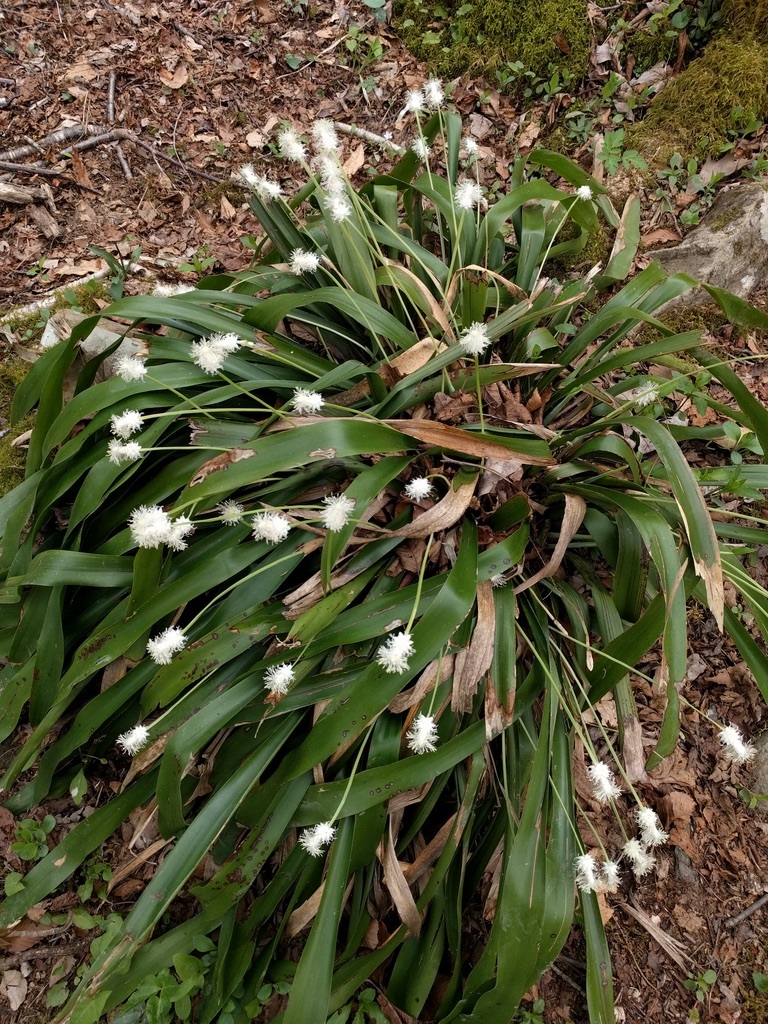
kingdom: Plantae
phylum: Tracheophyta
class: Liliopsida
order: Poales
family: Cyperaceae
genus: Carex
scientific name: Carex fraseriana
